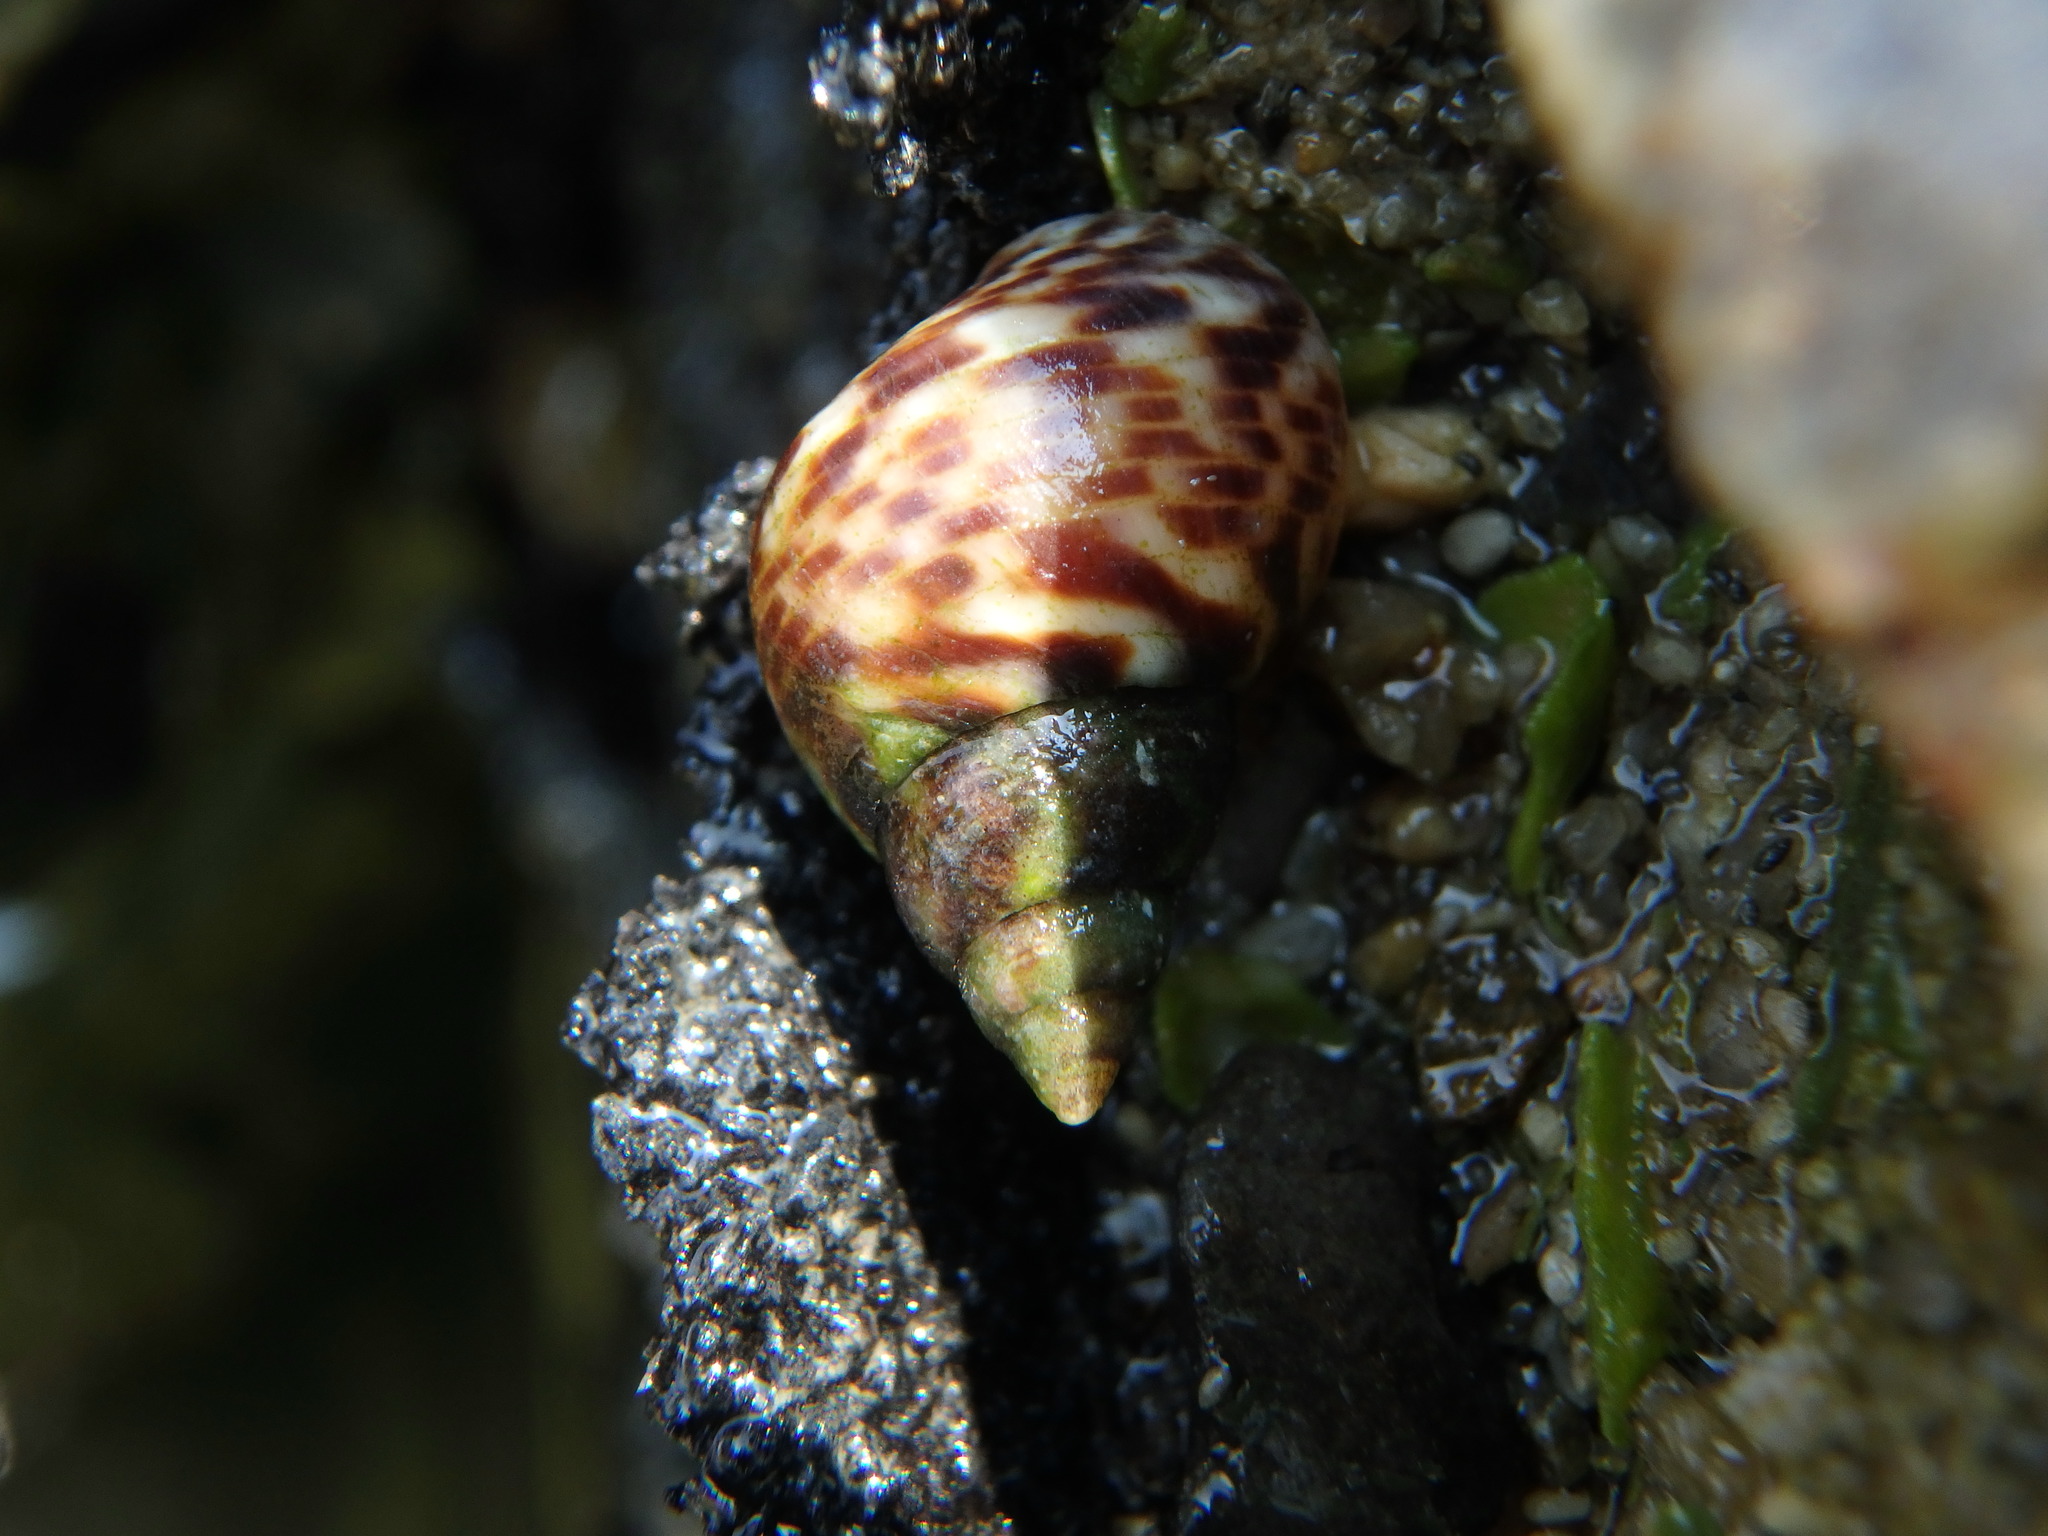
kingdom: Animalia
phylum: Mollusca
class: Gastropoda
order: Littorinimorpha
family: Littorinidae
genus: Littoraria
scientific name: Littoraria strigata
